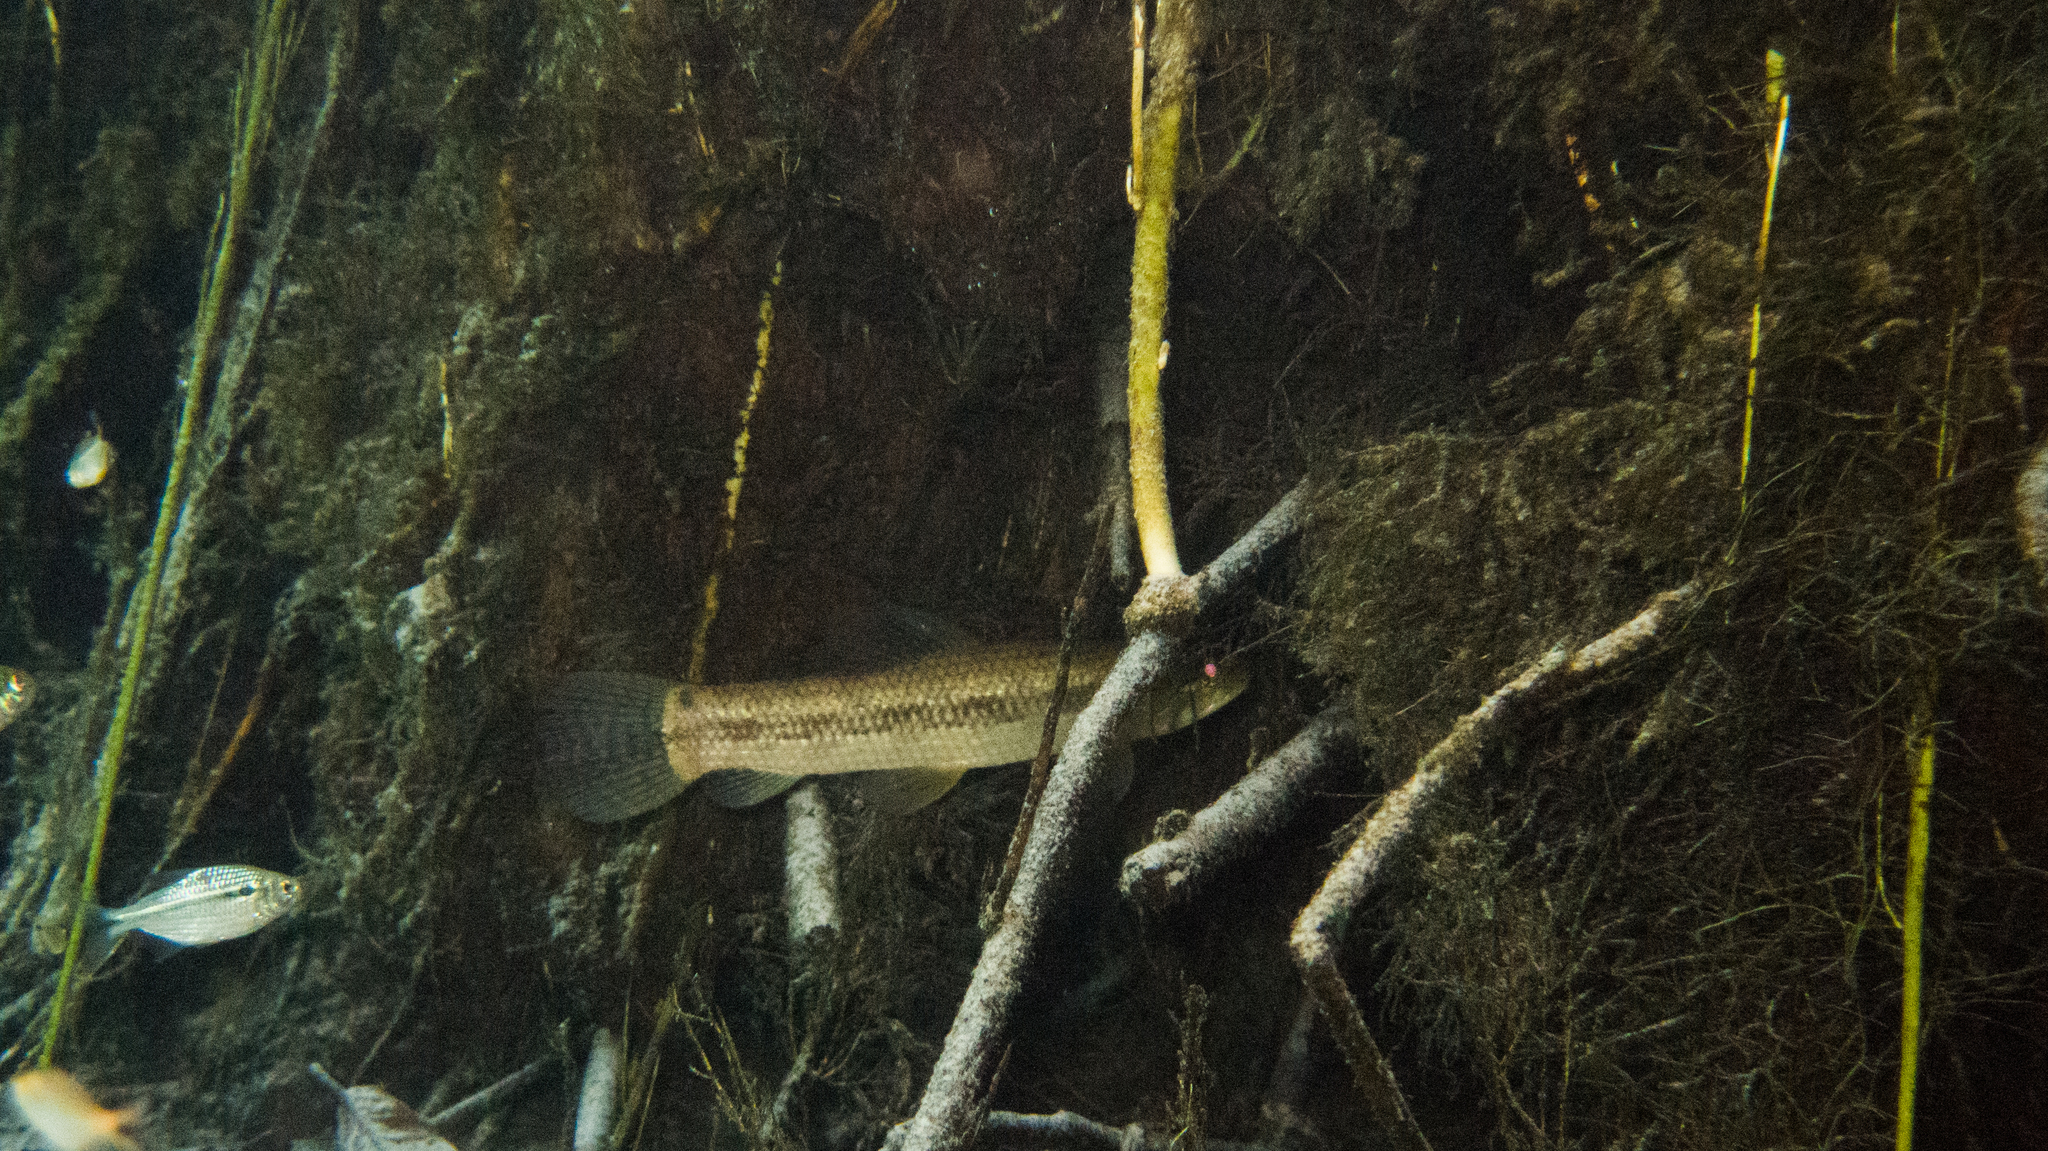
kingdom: Animalia
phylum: Chordata
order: Characiformes
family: Erythrinidae
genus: Hoplias
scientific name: Hoplias malabaricus
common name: Trahira
